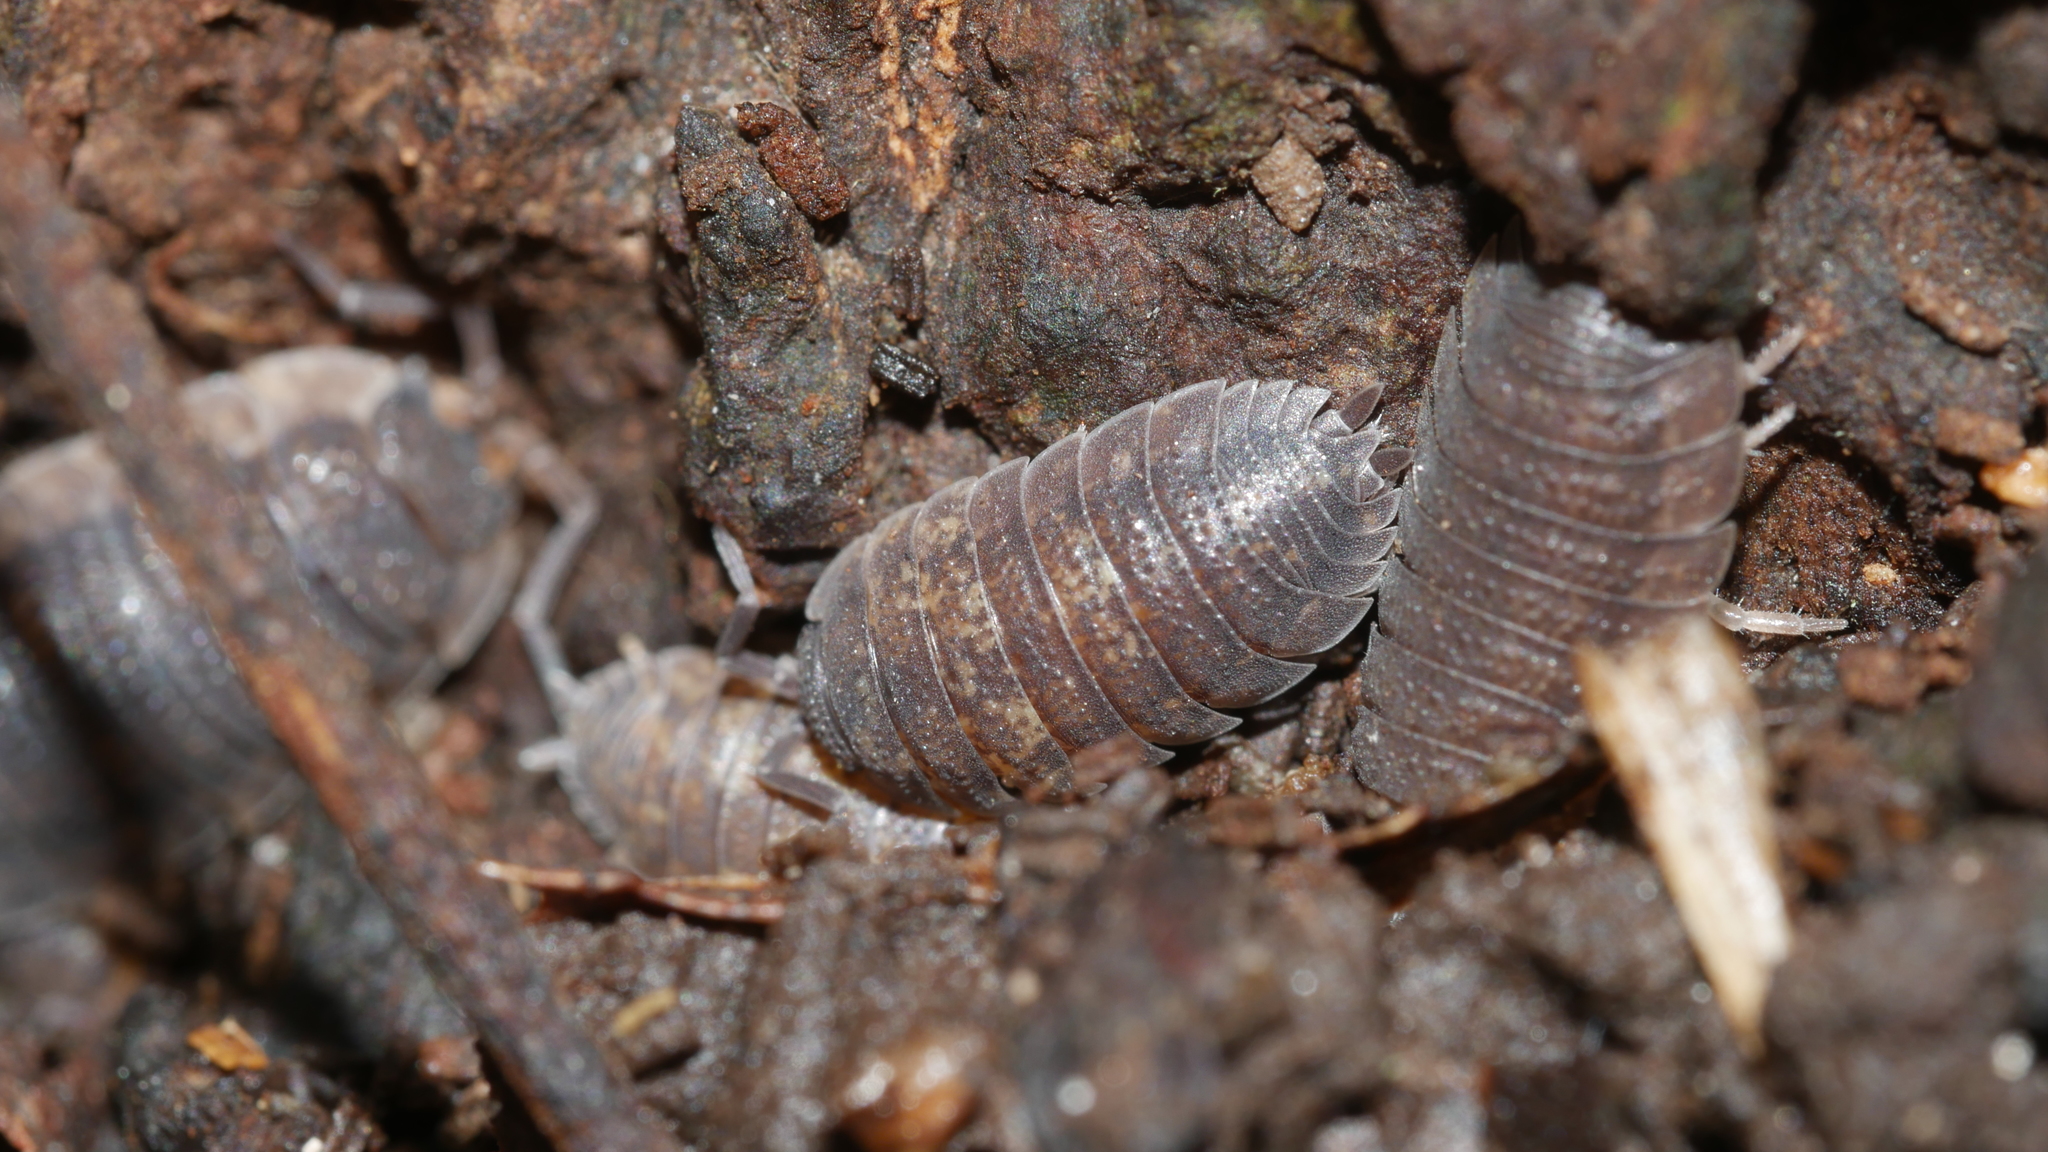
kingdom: Animalia
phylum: Arthropoda
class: Malacostraca
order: Isopoda
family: Porcellionidae
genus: Porcellio
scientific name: Porcellio scaber
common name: Common rough woodlouse
